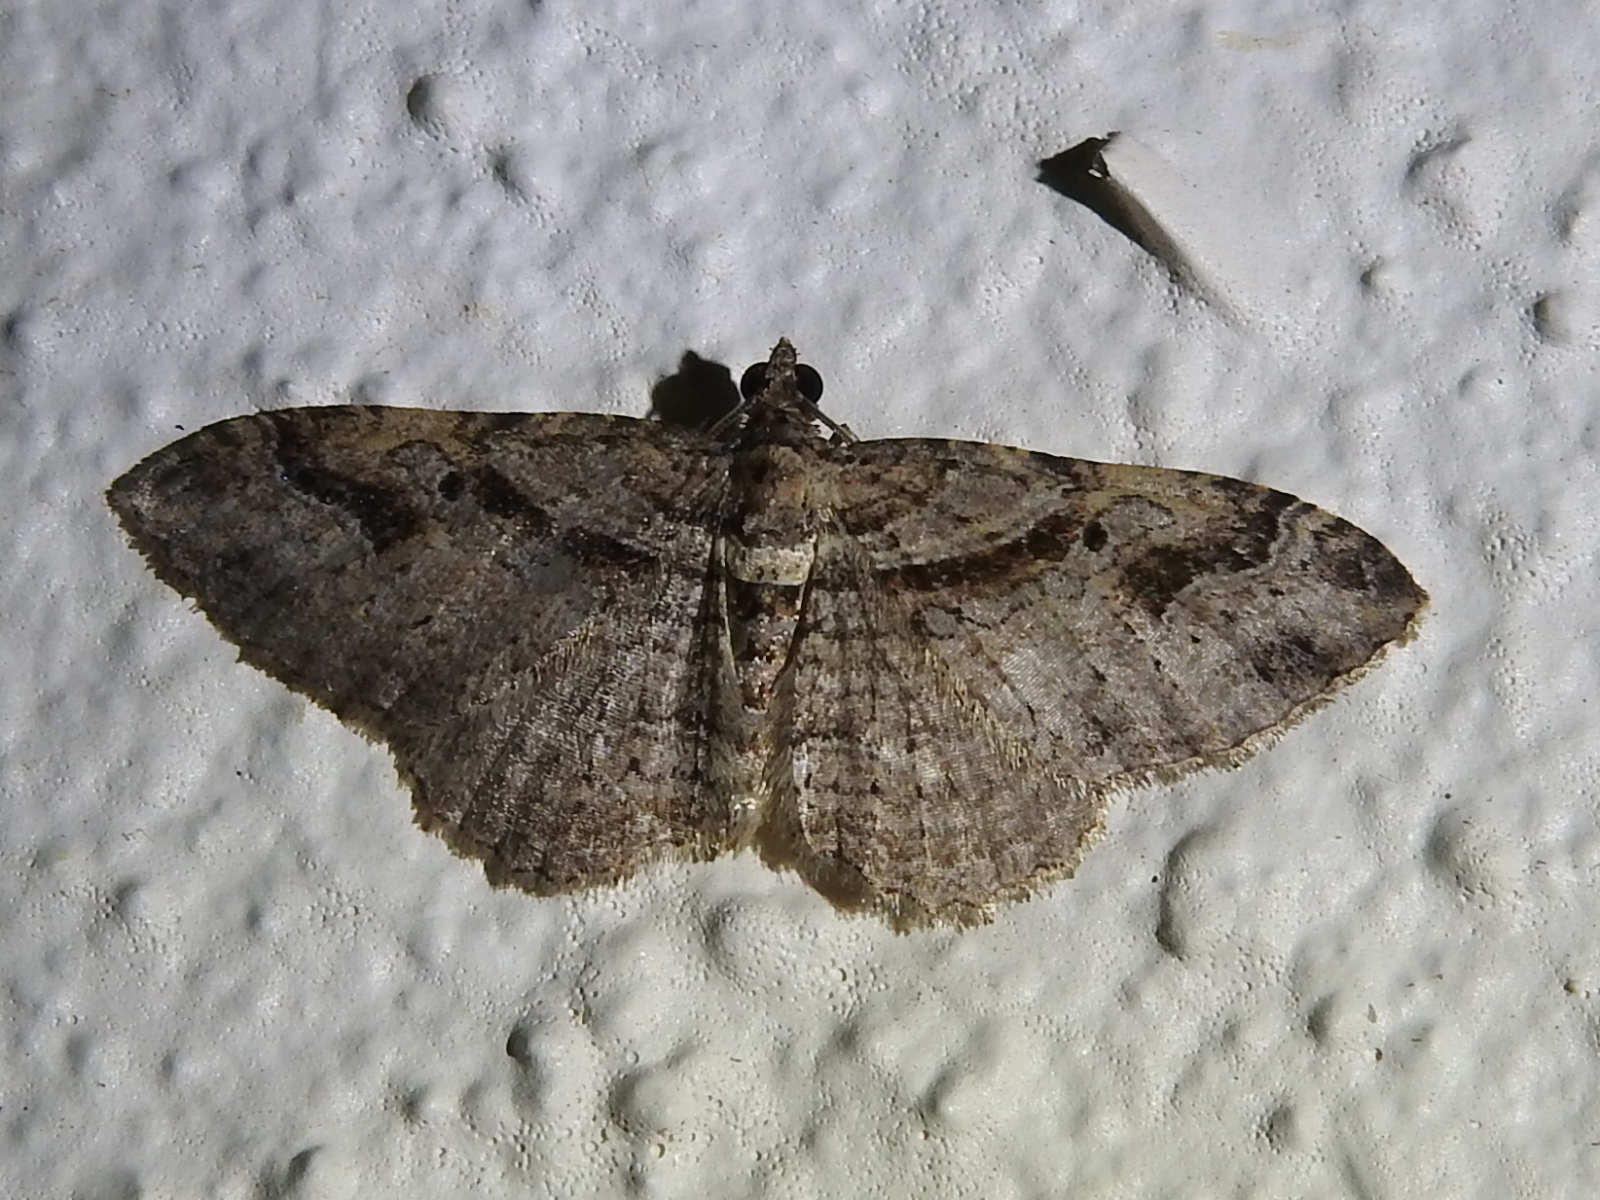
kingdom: Animalia
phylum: Arthropoda
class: Insecta
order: Lepidoptera
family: Geometridae
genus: Costaconvexa
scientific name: Costaconvexa centrostrigaria
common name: Bent-line carpet
